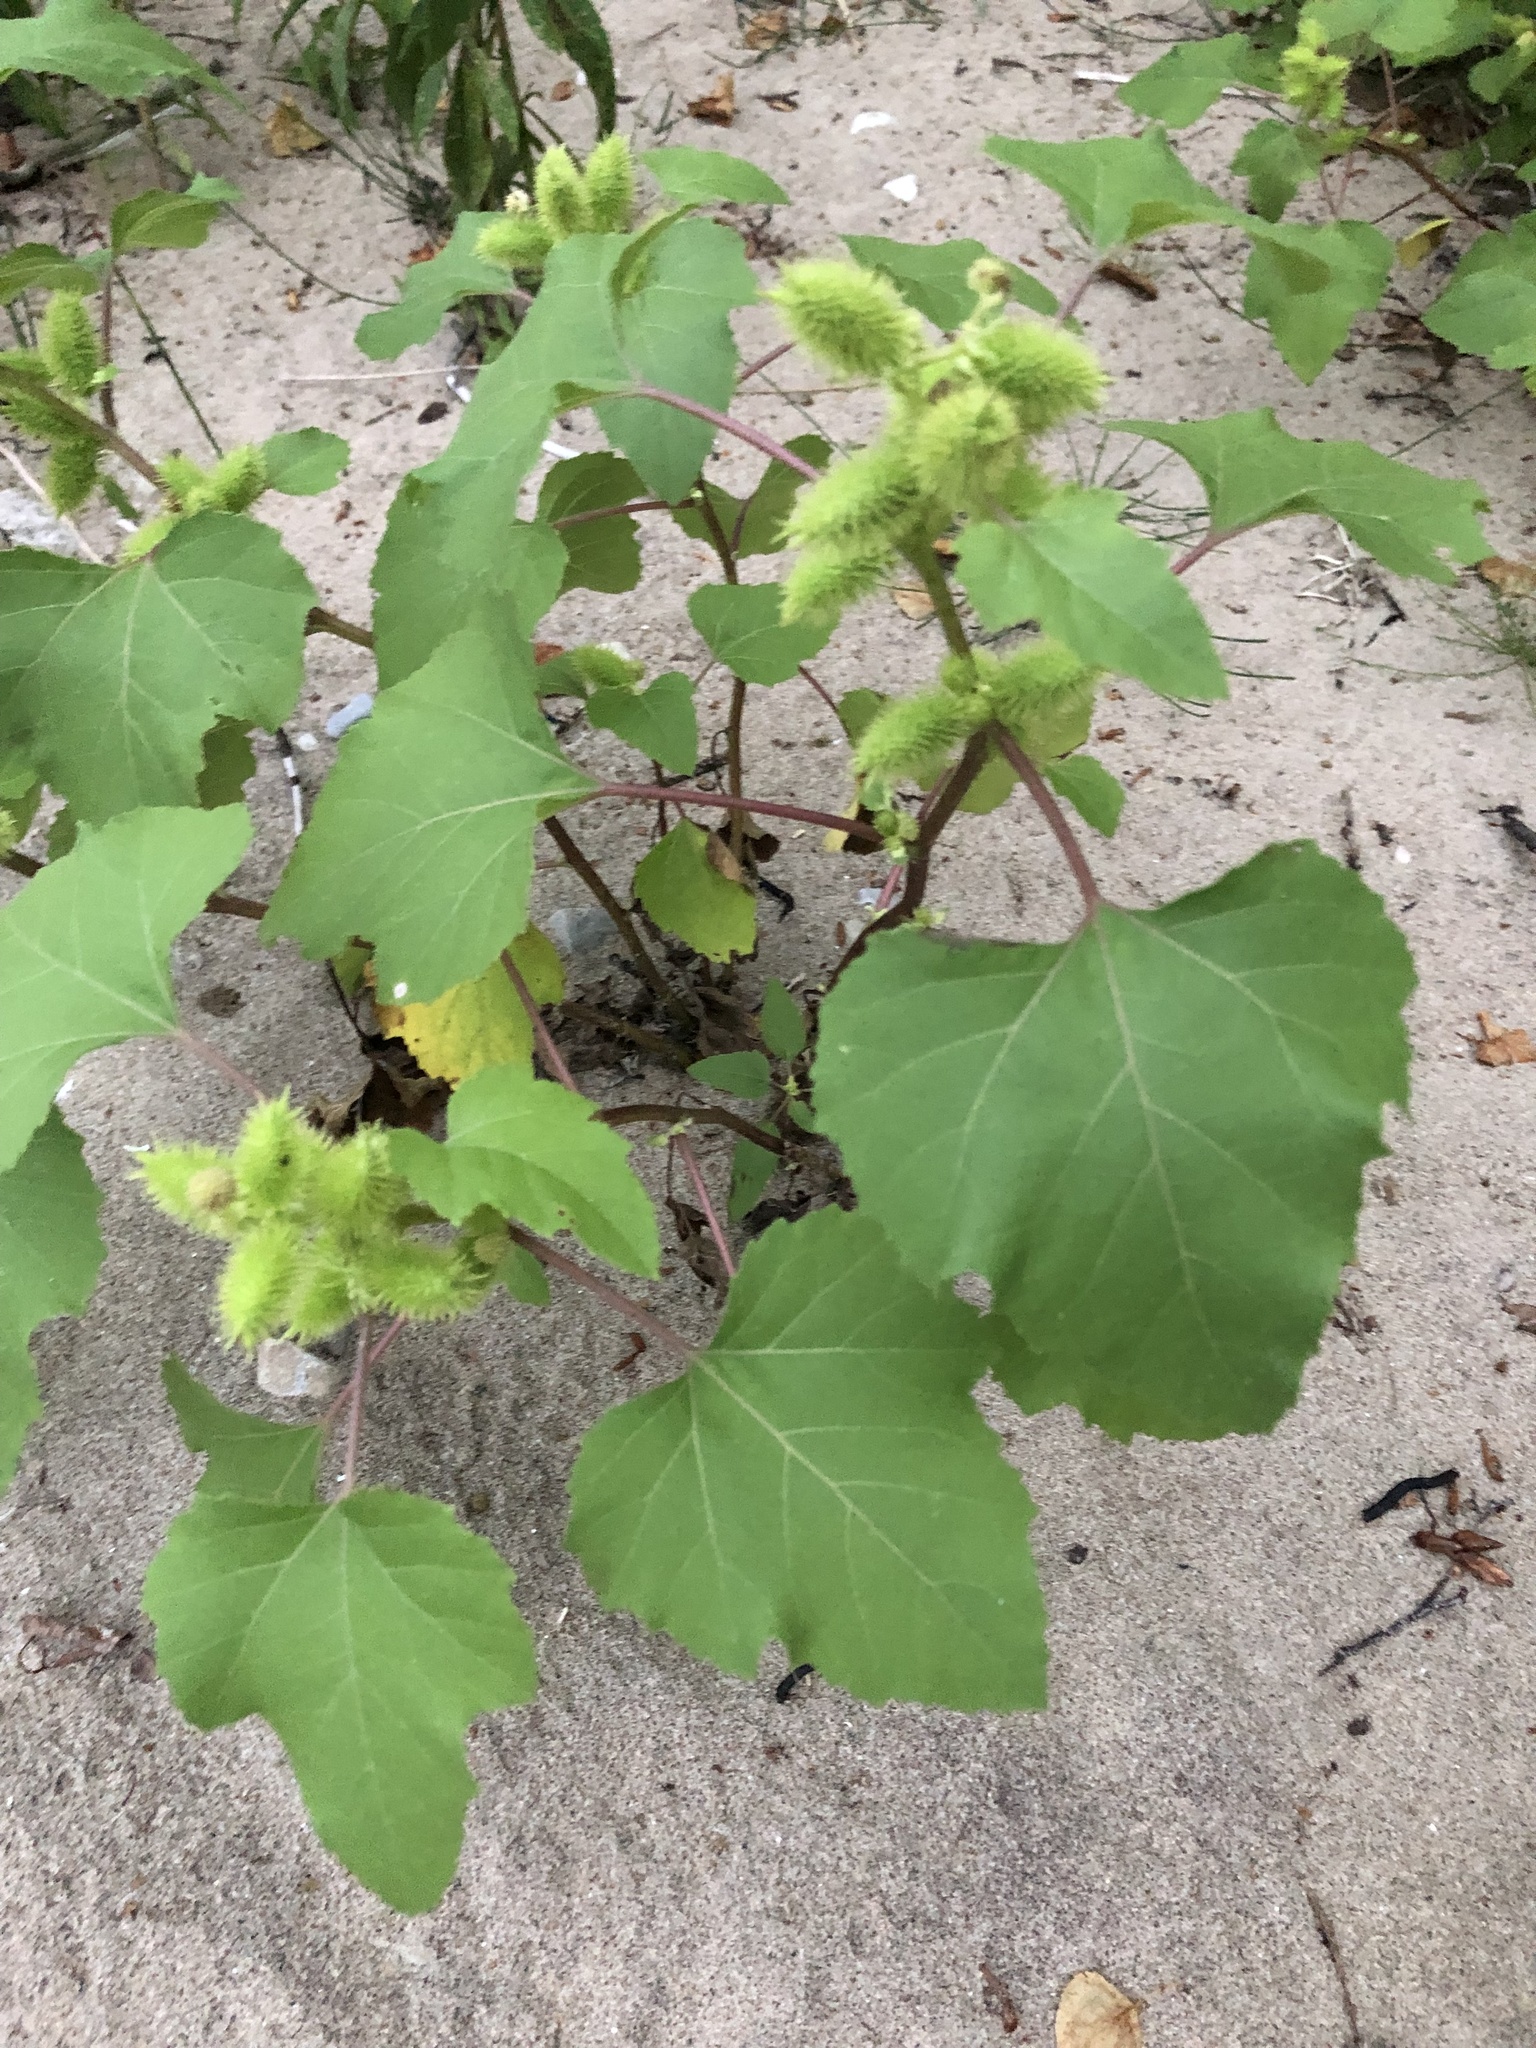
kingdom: Plantae
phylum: Tracheophyta
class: Magnoliopsida
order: Asterales
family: Asteraceae
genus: Xanthium
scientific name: Xanthium strumarium
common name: Rough cocklebur
